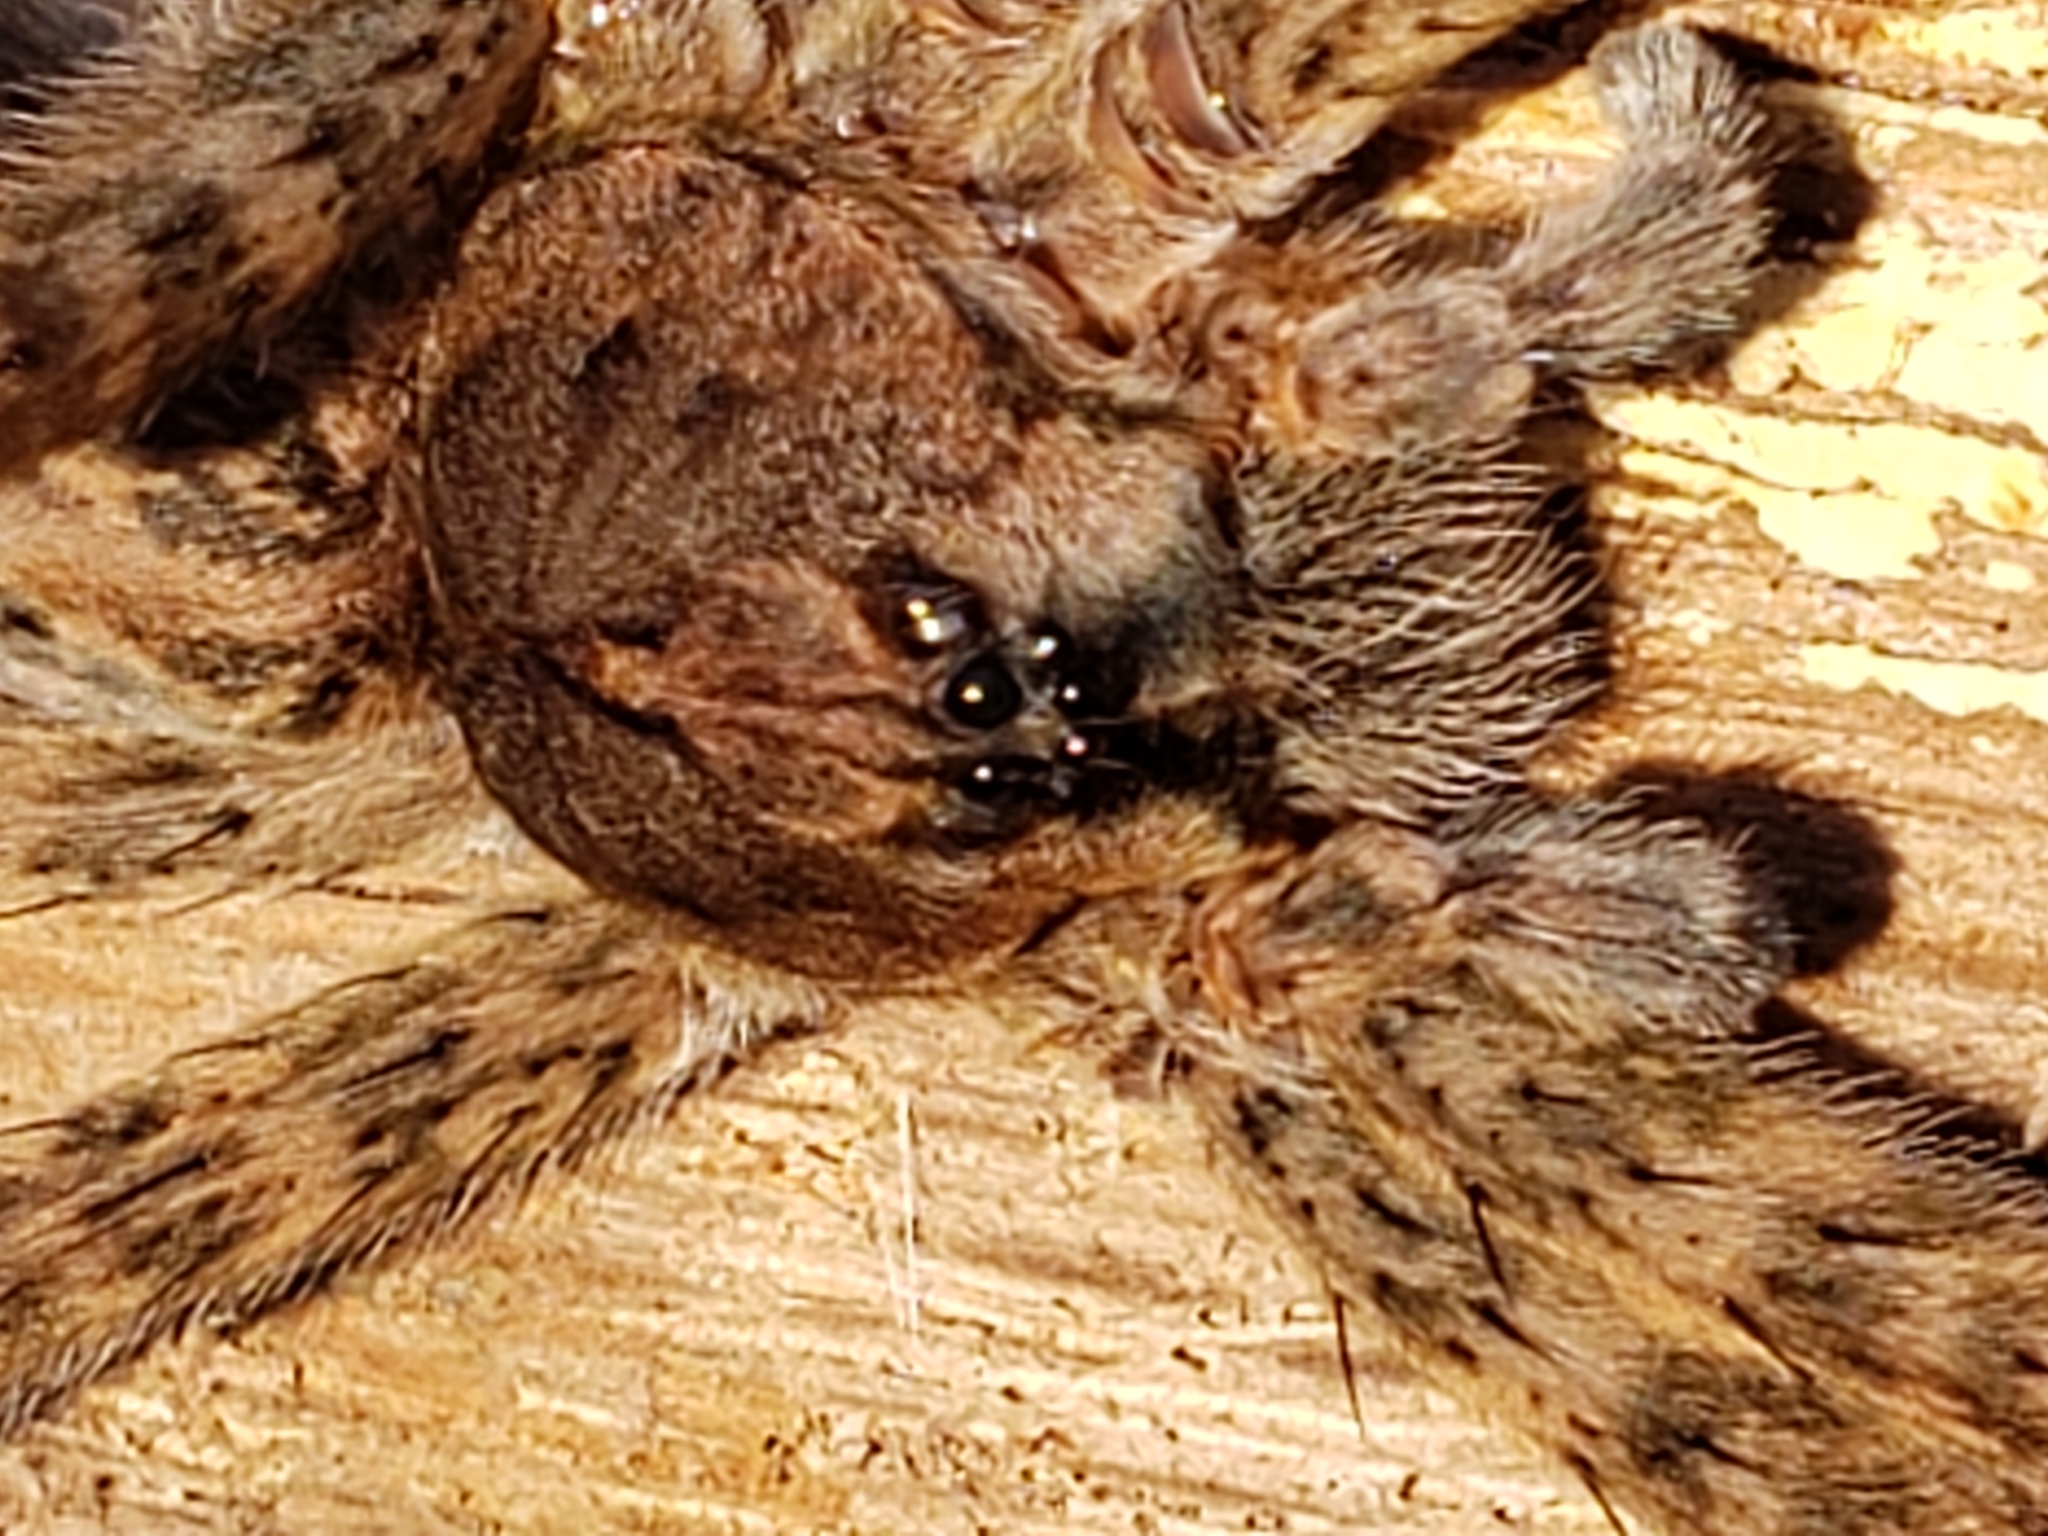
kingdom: Animalia
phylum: Arthropoda
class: Arachnida
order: Araneae
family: Pisauridae
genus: Dolomedes
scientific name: Dolomedes tenebrosus
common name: Dark fishing spider
